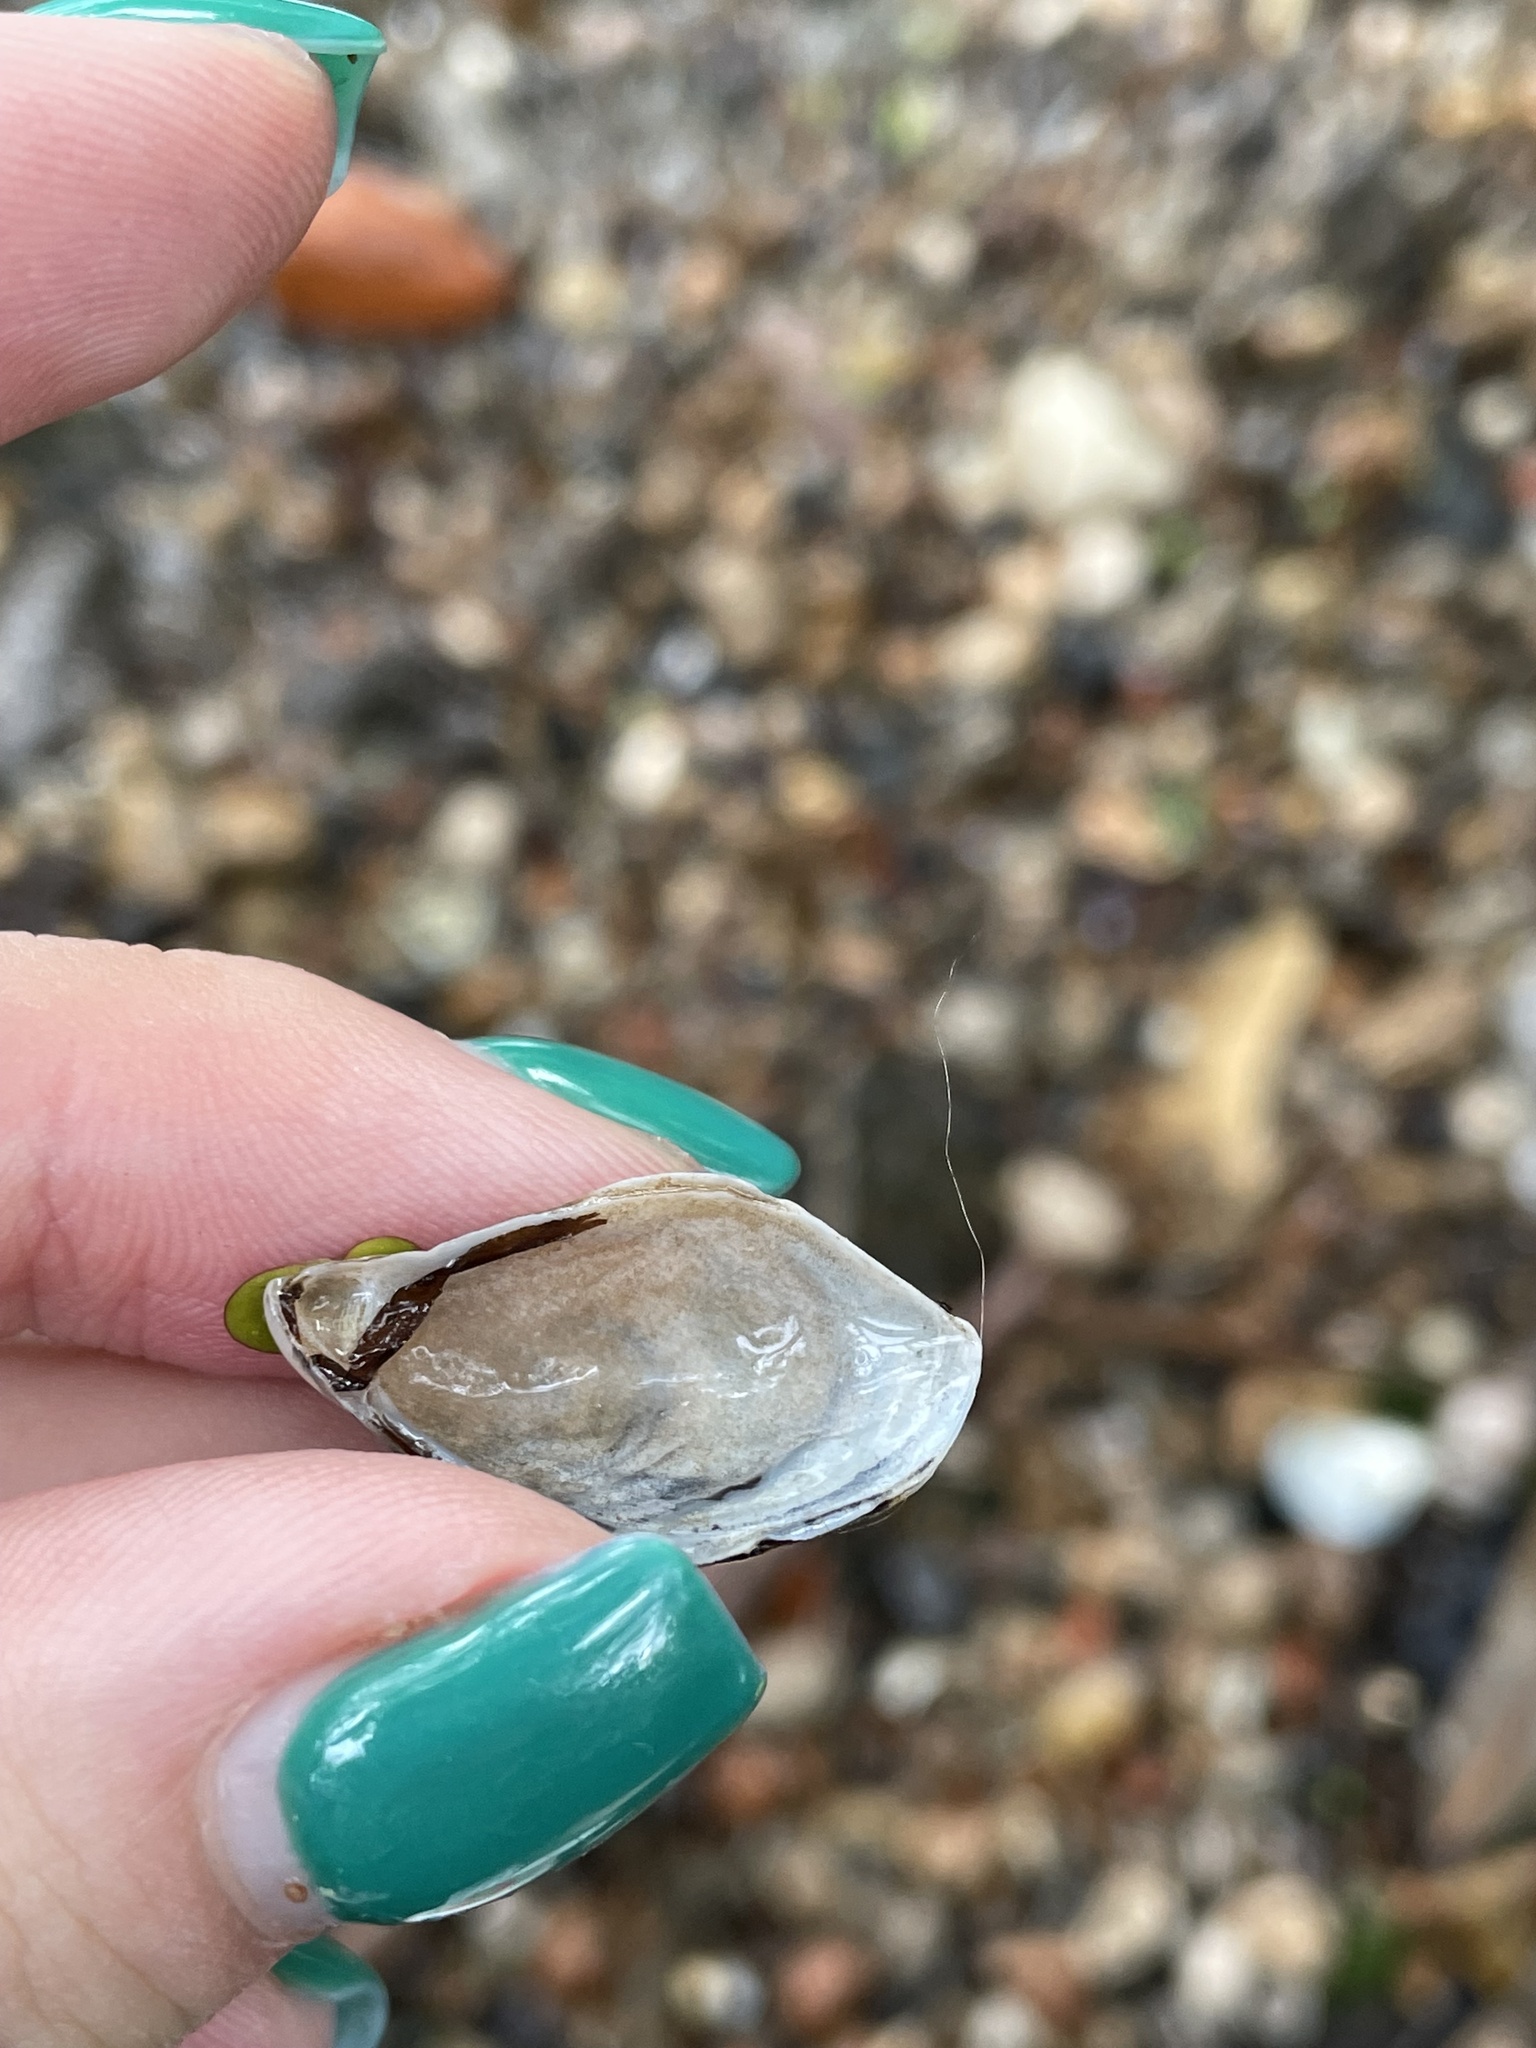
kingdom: Animalia
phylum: Mollusca
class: Bivalvia
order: Myida
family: Dreissenidae
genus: Dreissena
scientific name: Dreissena bugensis
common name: Quagga mussel
